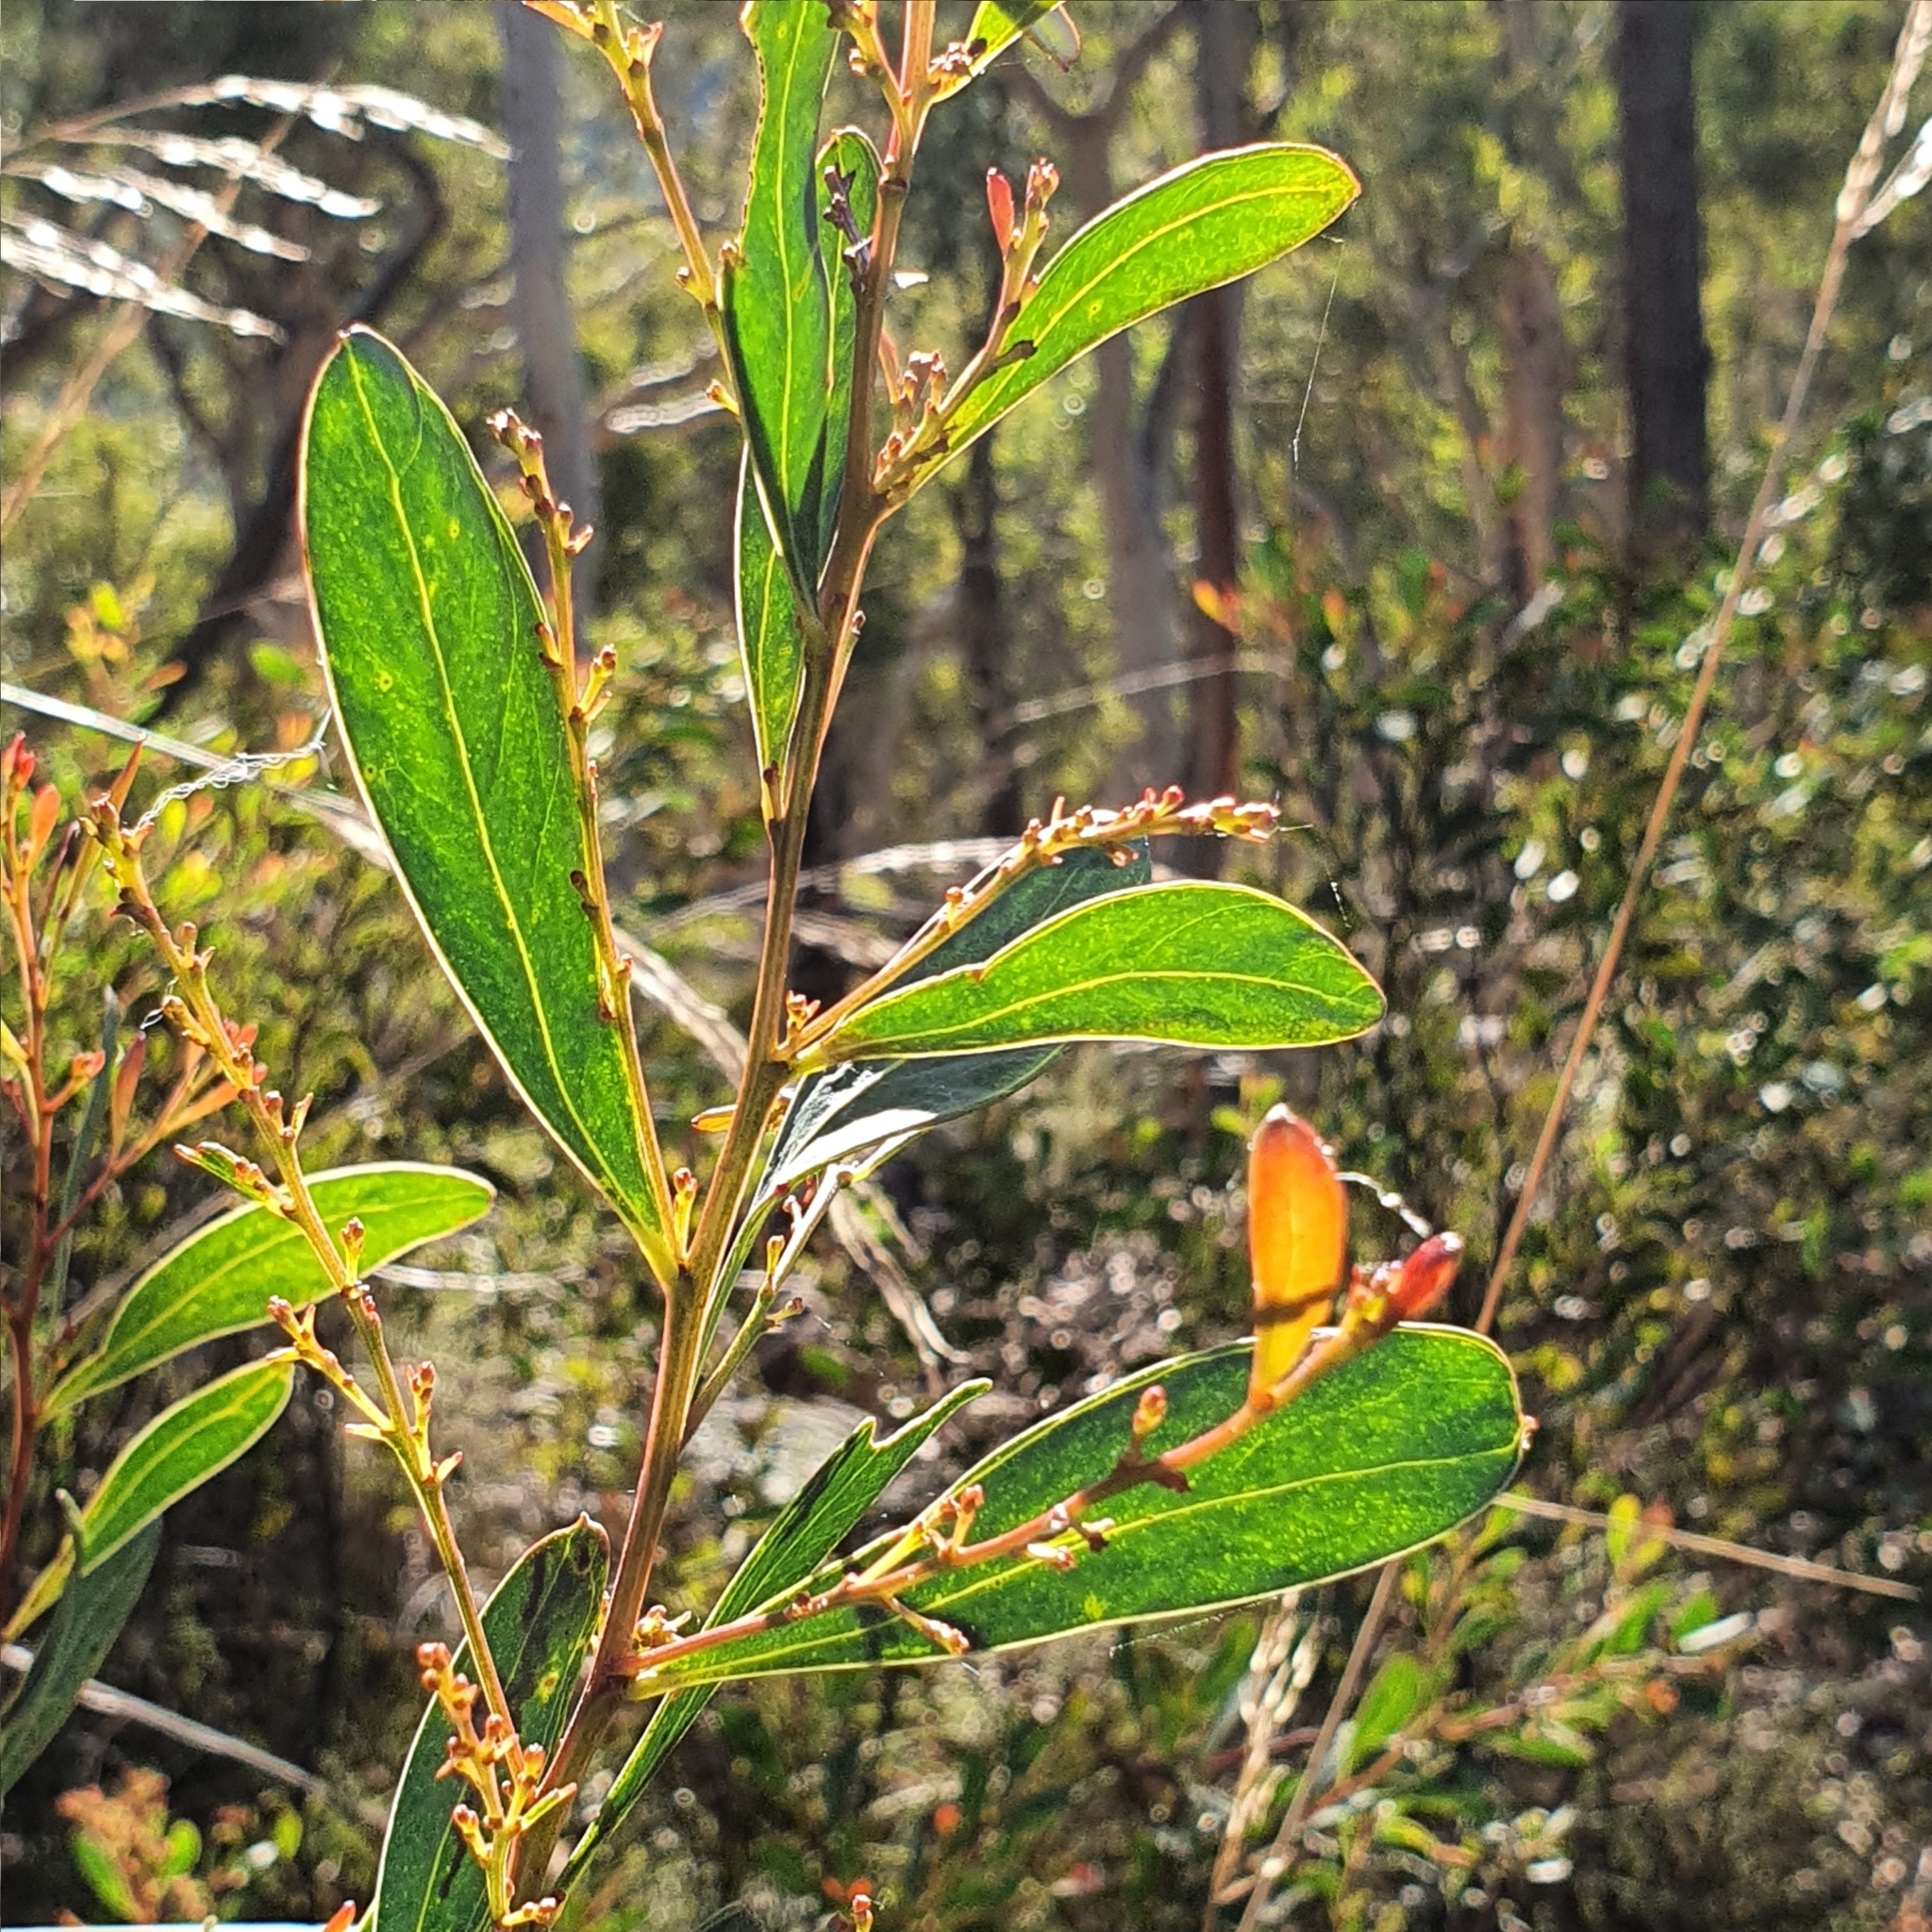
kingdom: Plantae
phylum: Tracheophyta
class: Magnoliopsida
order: Fabales
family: Fabaceae
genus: Acacia
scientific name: Acacia penninervis
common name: Hickory wattle
